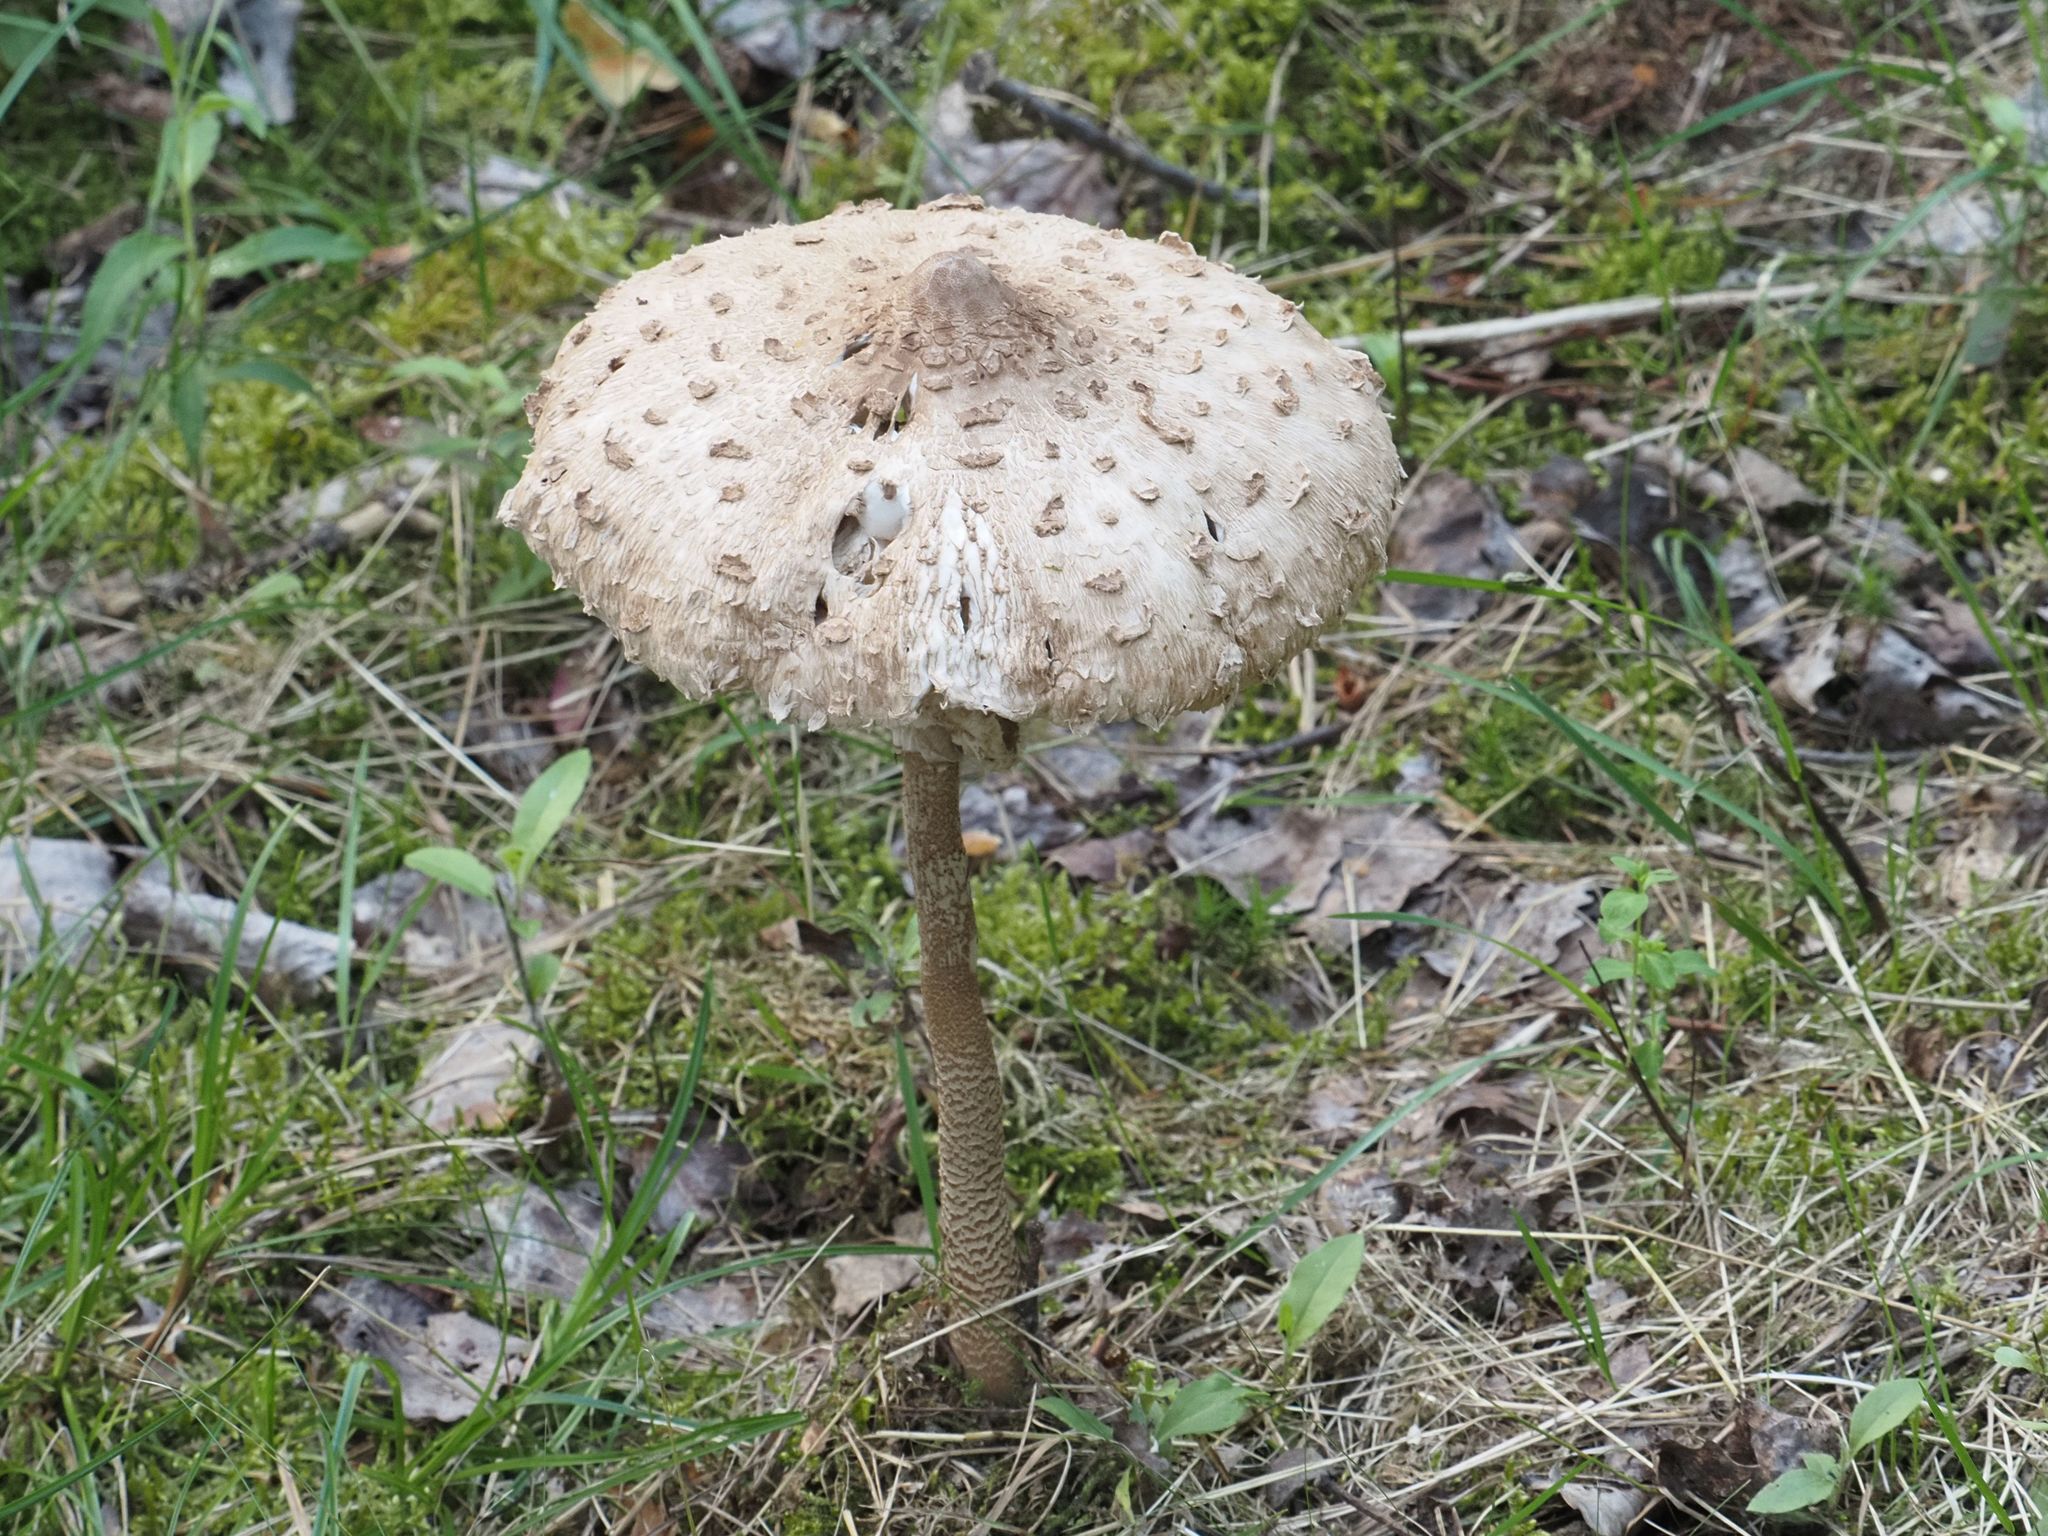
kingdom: Fungi
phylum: Basidiomycota
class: Agaricomycetes
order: Agaricales
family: Agaricaceae
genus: Macrolepiota
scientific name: Macrolepiota procera
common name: Parasol
